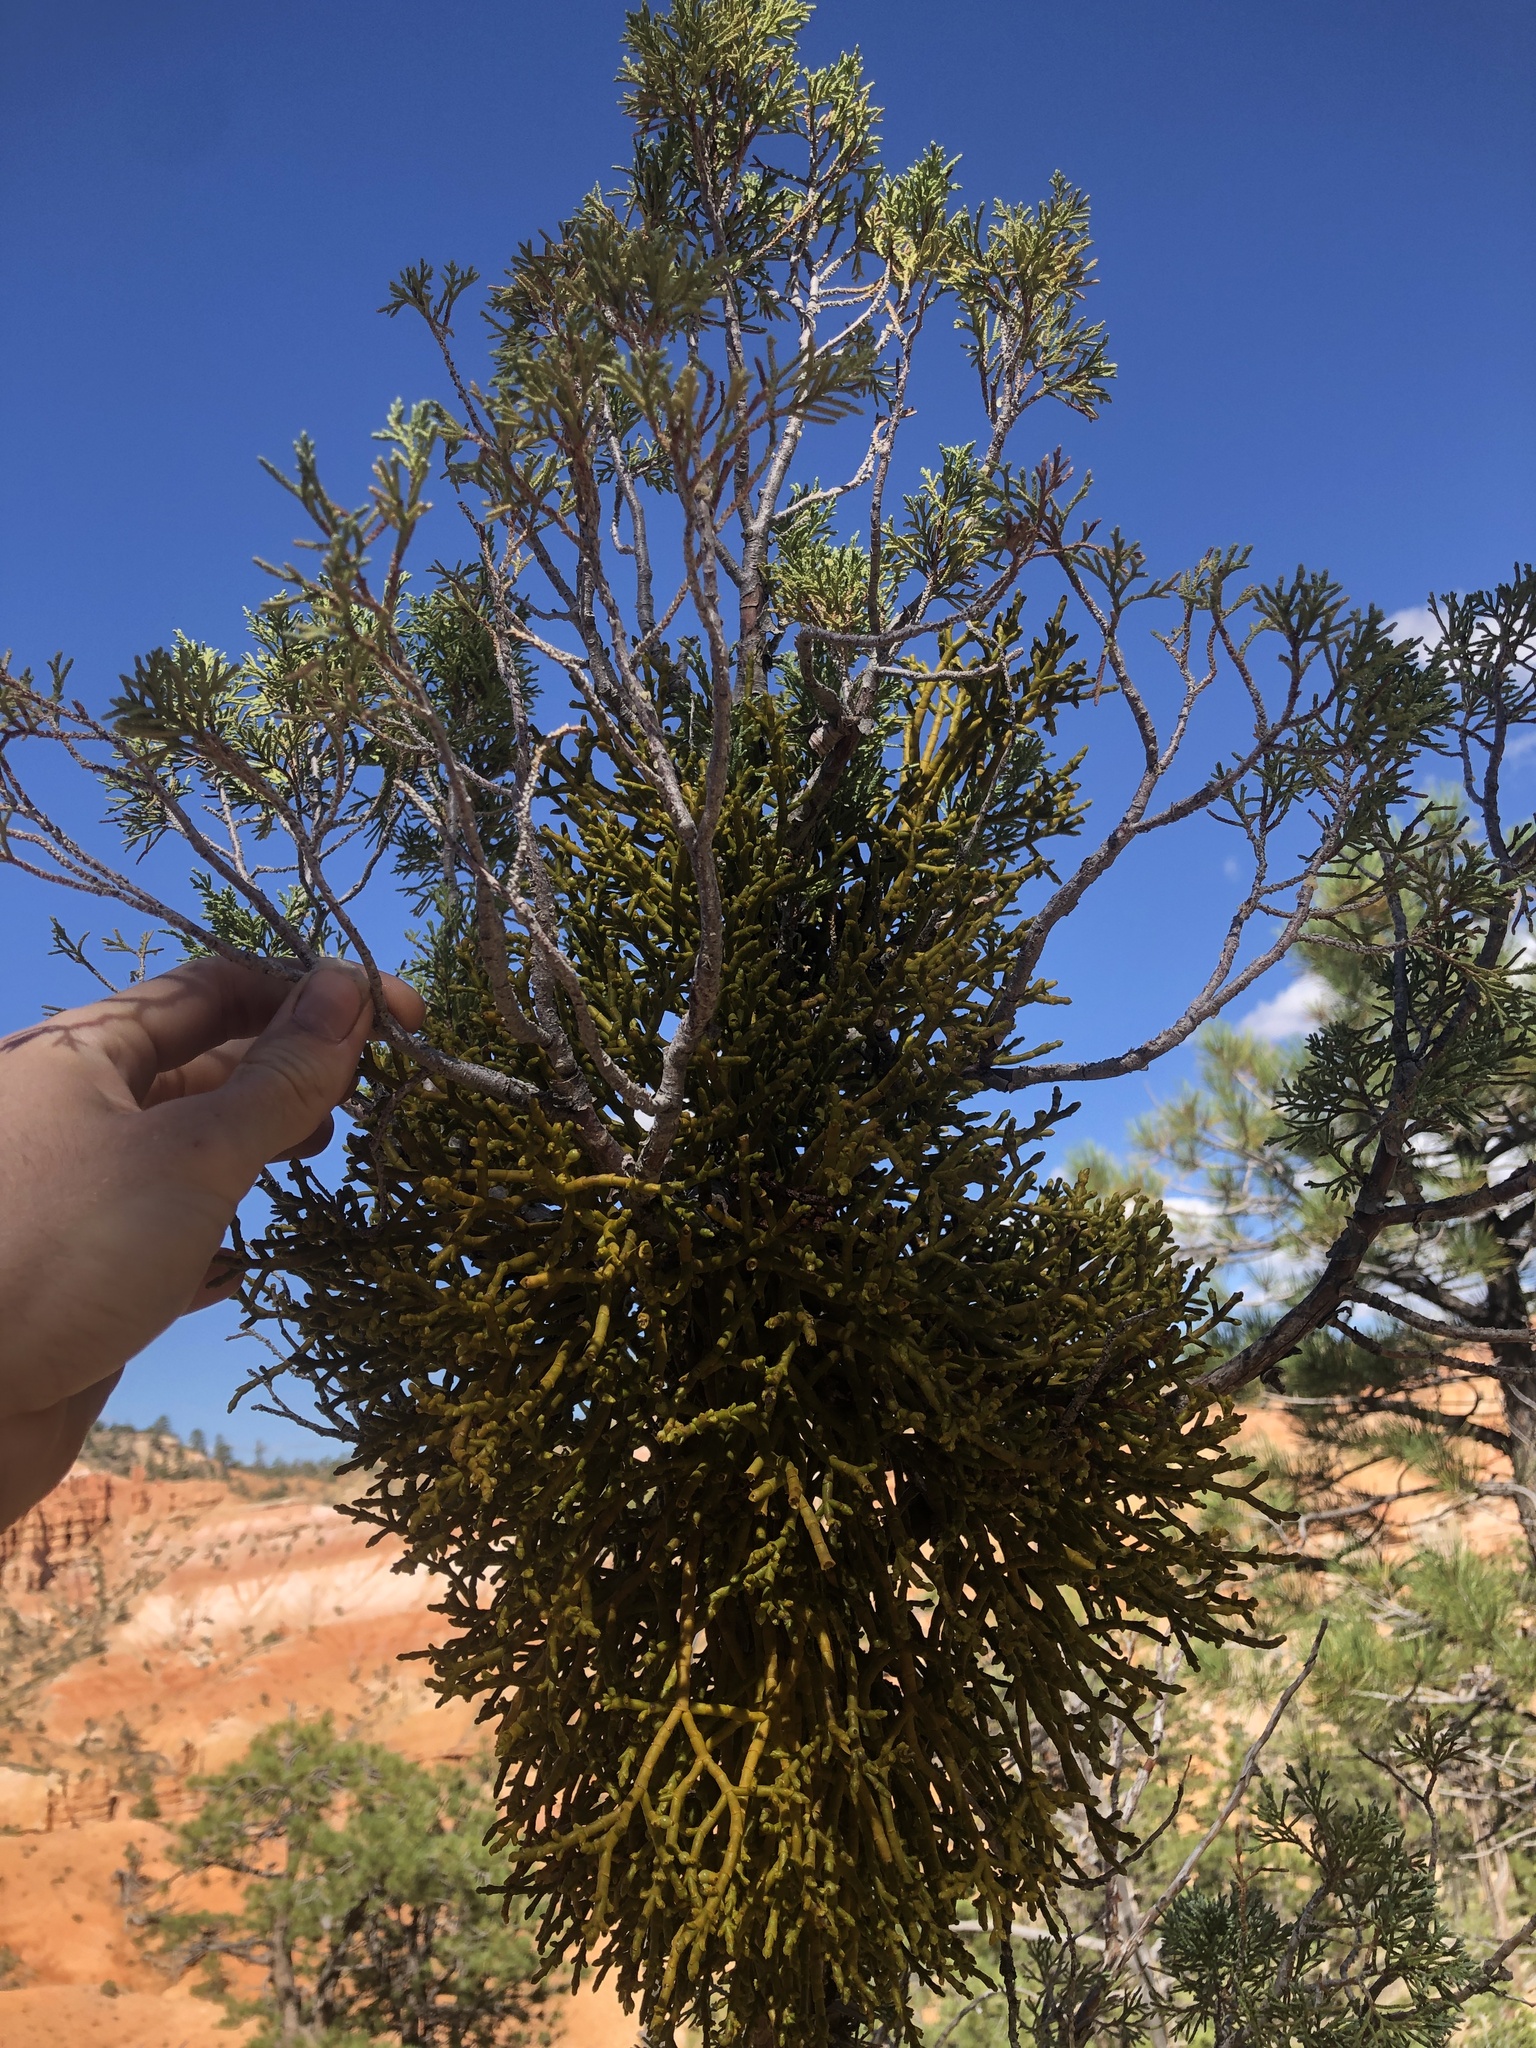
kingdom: Plantae
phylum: Tracheophyta
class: Magnoliopsida
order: Santalales
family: Viscaceae
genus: Phoradendron
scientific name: Phoradendron juniperinum
